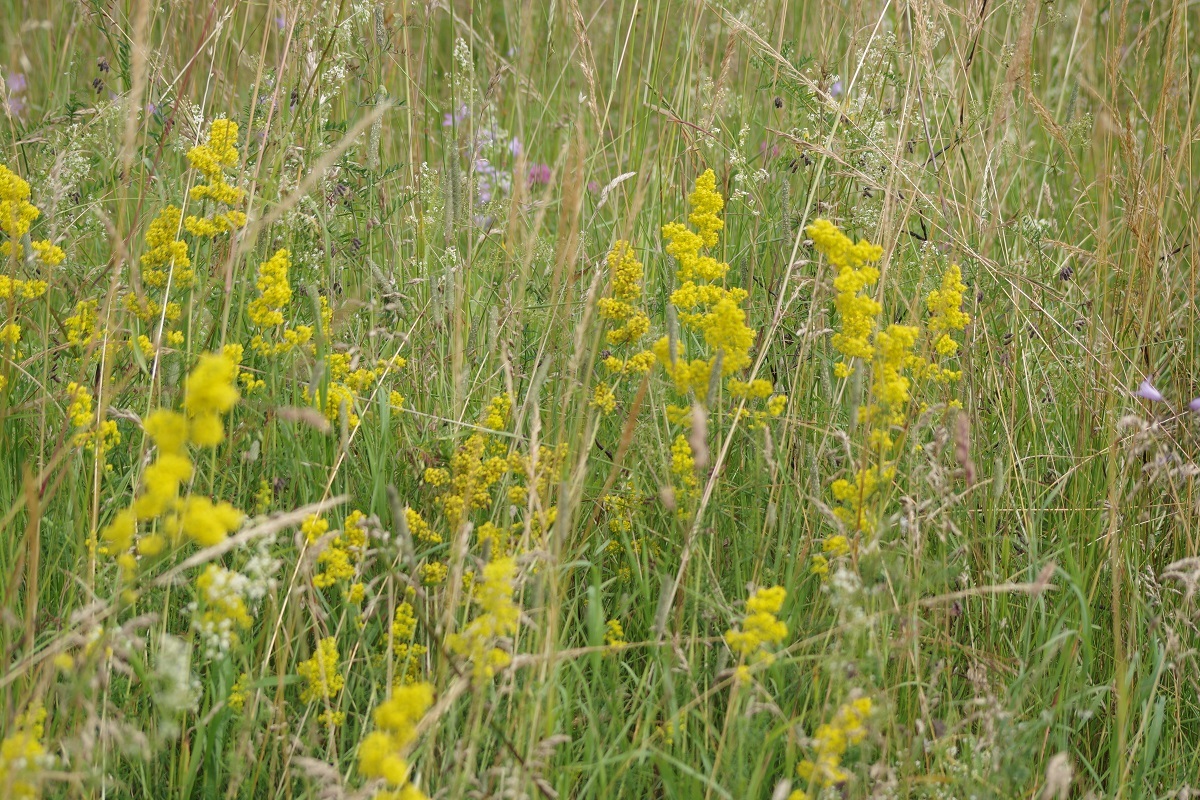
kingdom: Plantae
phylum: Tracheophyta
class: Magnoliopsida
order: Gentianales
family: Rubiaceae
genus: Galium
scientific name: Galium verum
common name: Lady's bedstraw
